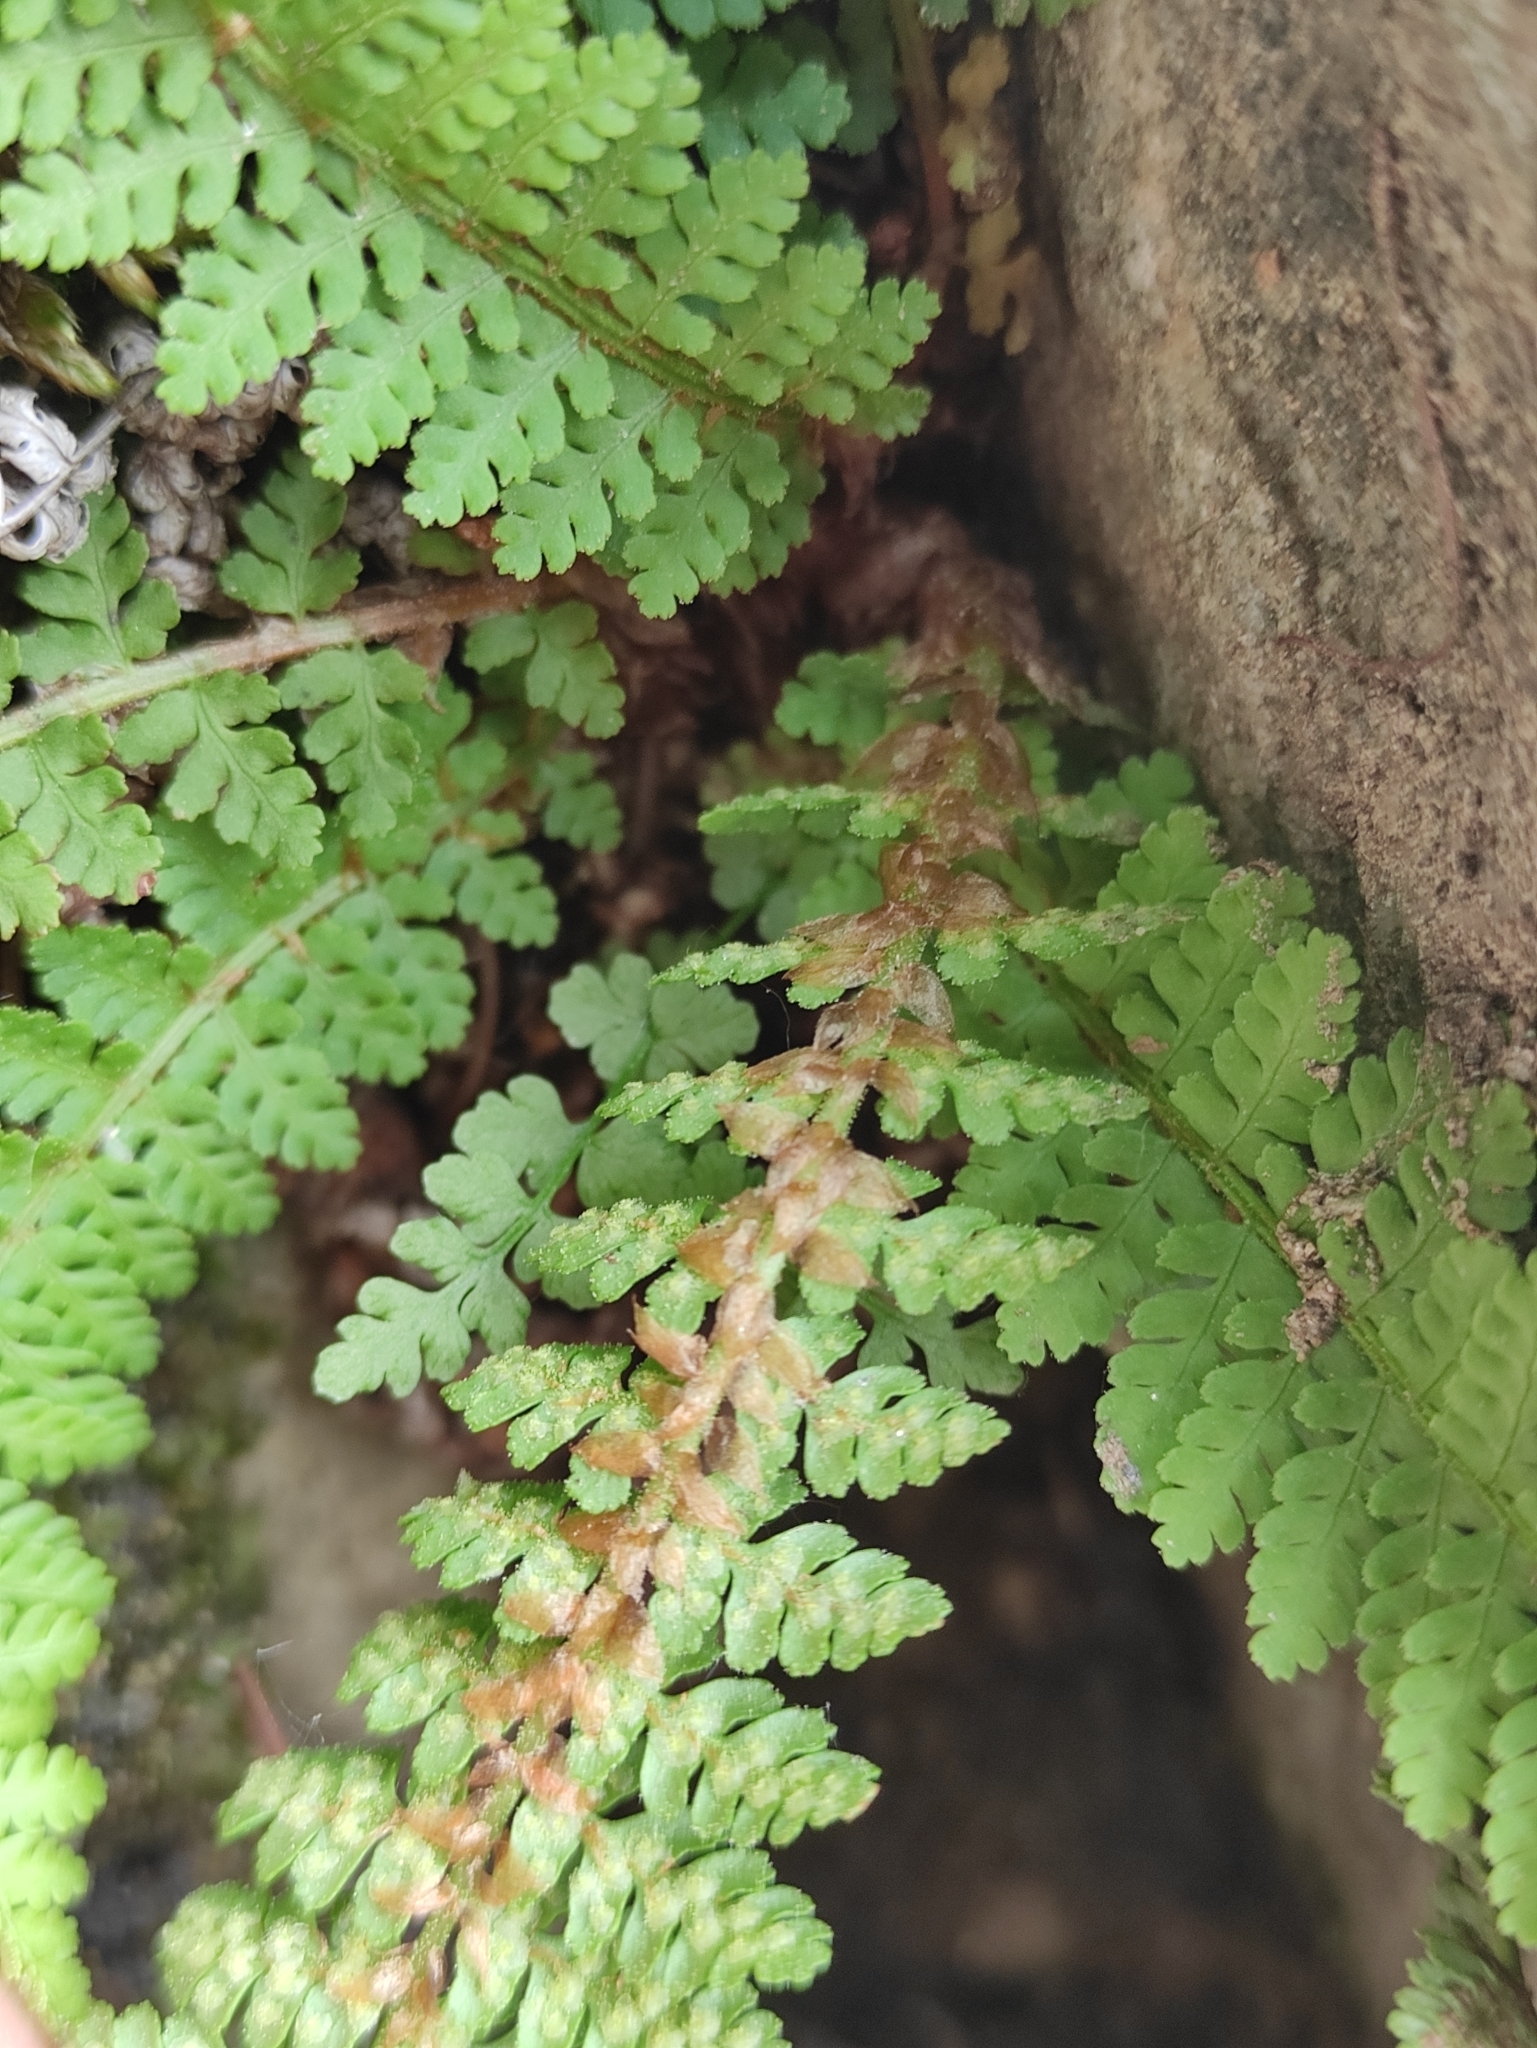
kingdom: Plantae
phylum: Tracheophyta
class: Polypodiopsida
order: Polypodiales
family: Dryopteridaceae
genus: Dryopteris
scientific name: Dryopteris fragrans
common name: Fragrant wood fern
